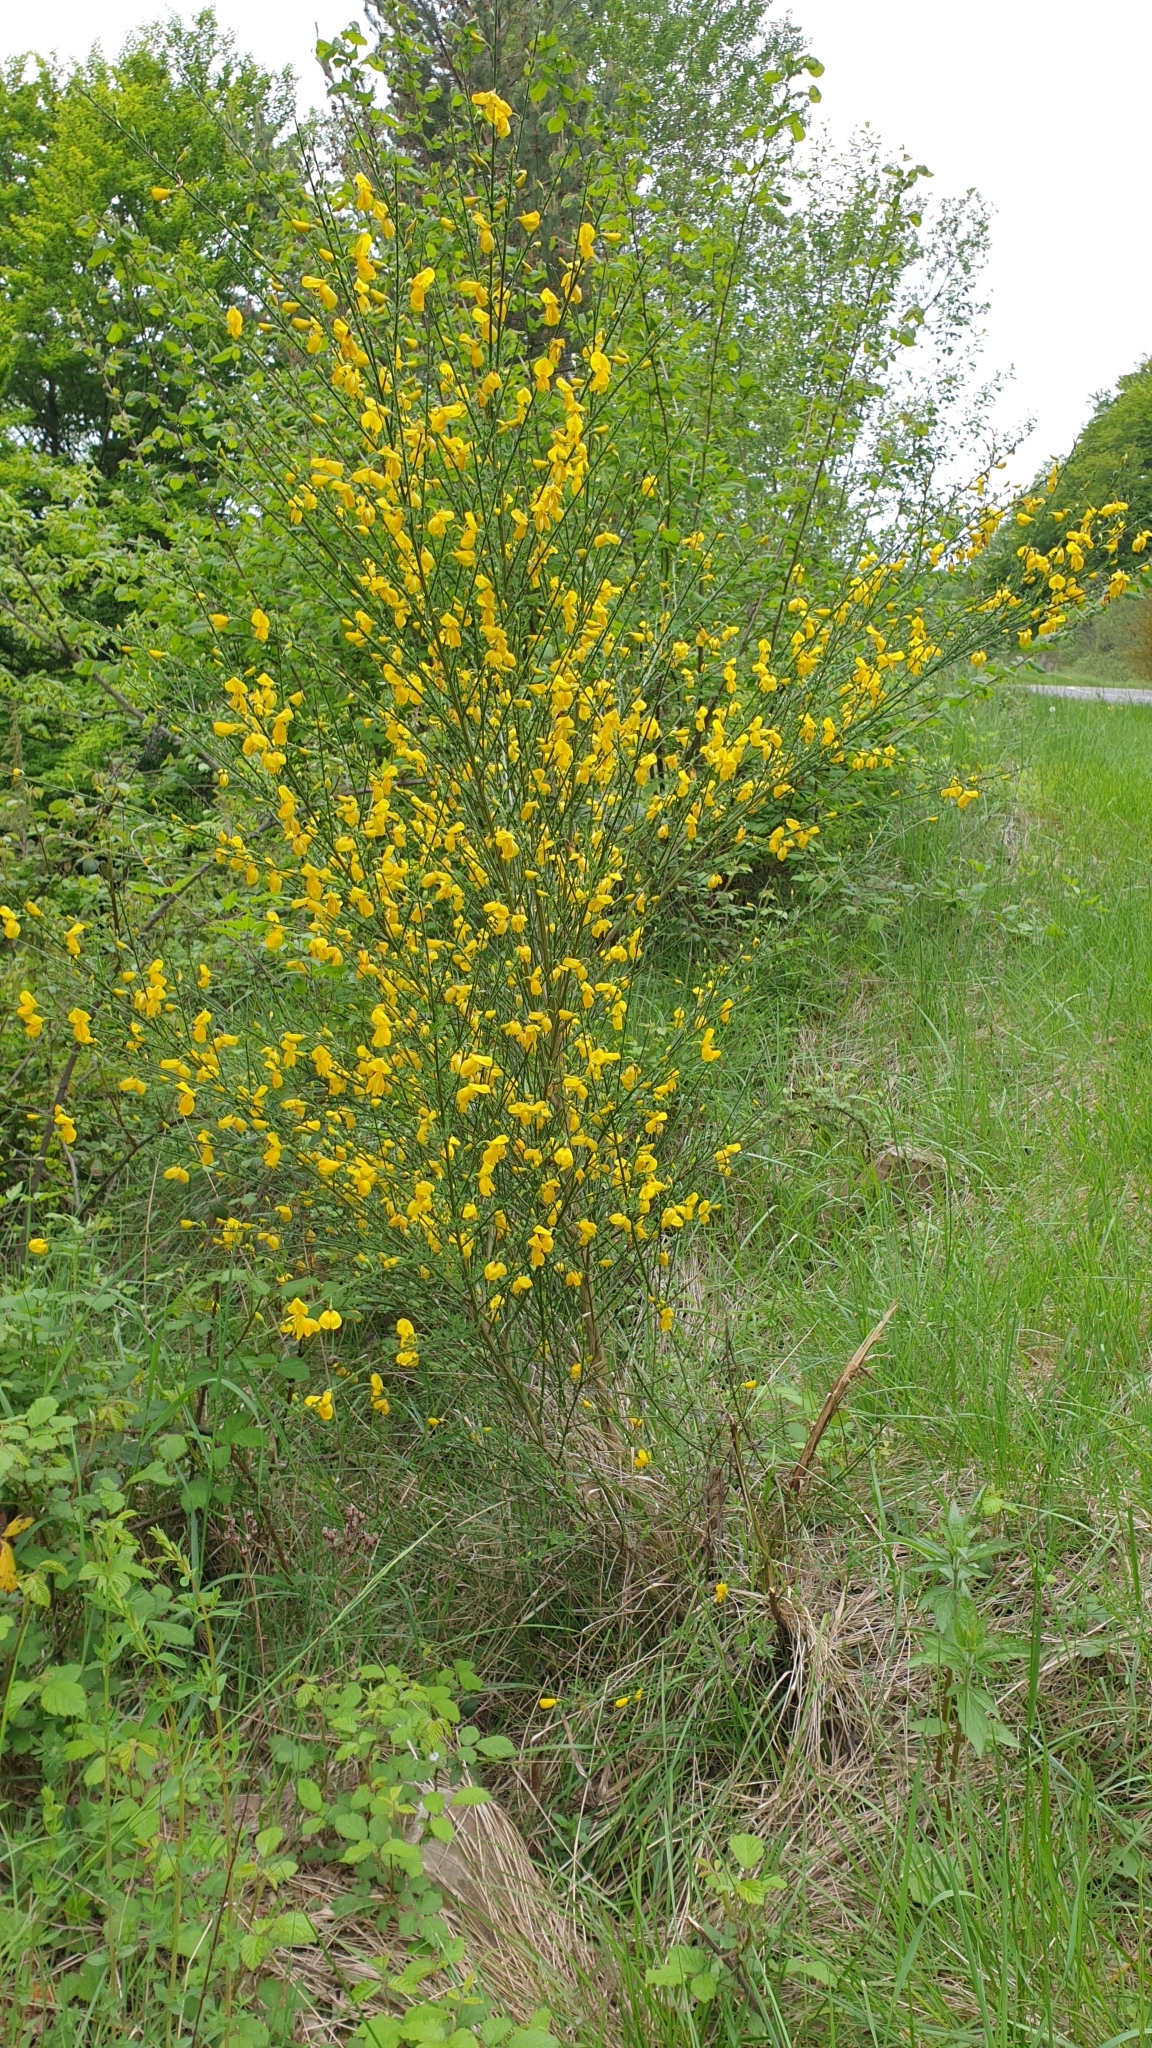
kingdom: Plantae
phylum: Tracheophyta
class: Magnoliopsida
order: Fabales
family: Fabaceae
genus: Spartium
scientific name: Spartium junceum
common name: Spanish broom
